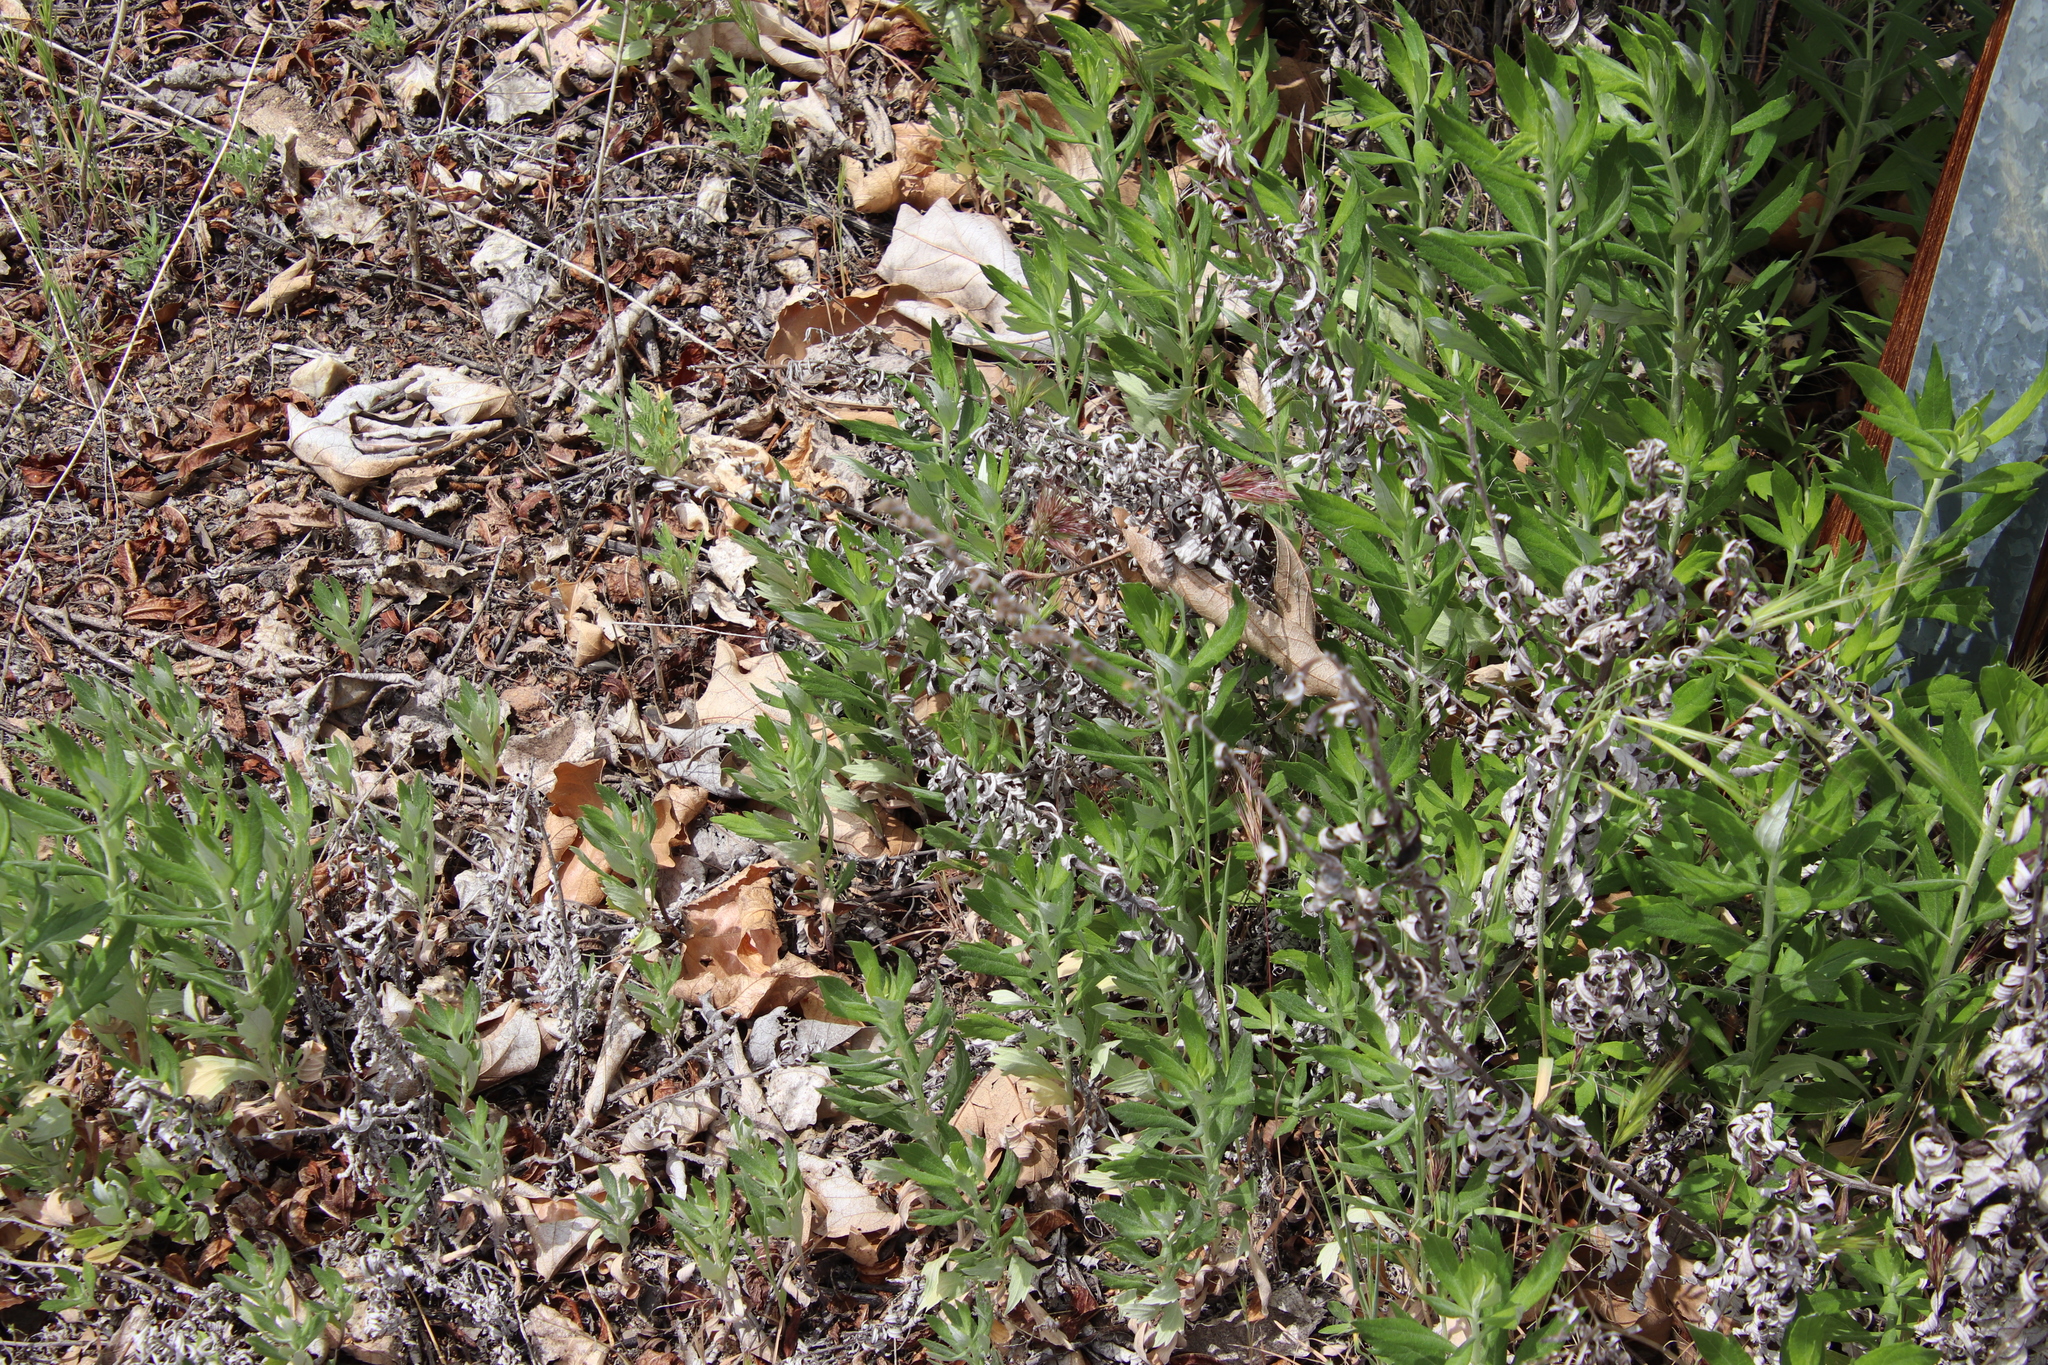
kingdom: Plantae
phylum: Tracheophyta
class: Magnoliopsida
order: Asterales
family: Asteraceae
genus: Artemisia
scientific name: Artemisia douglasiana
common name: Northwest mugwort
